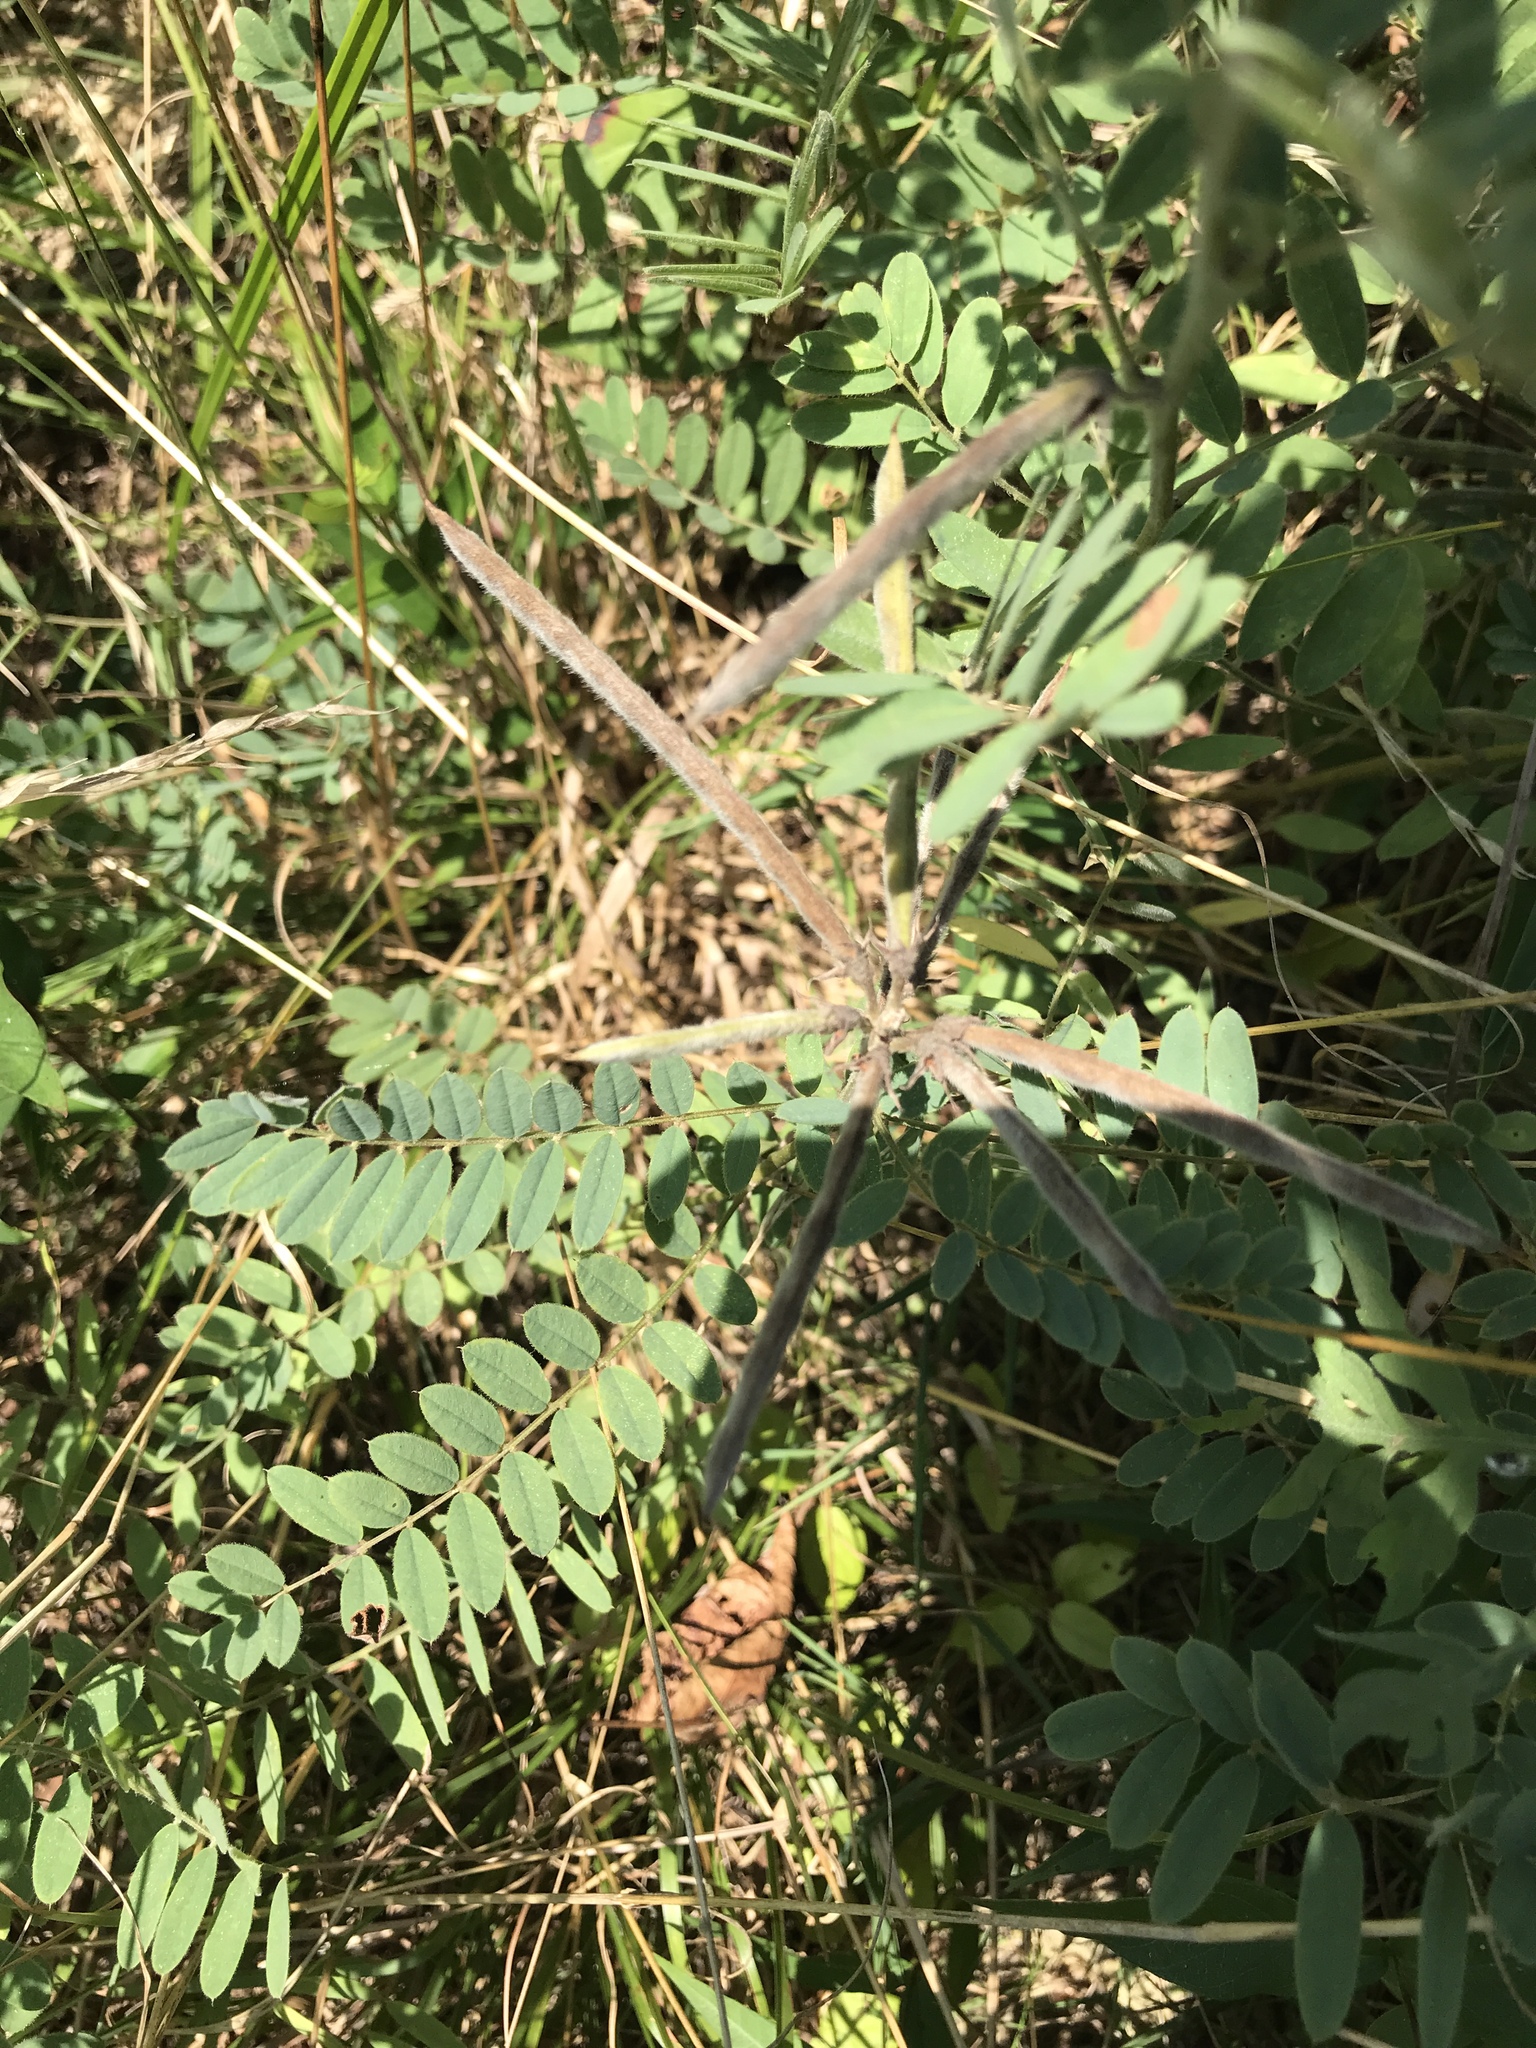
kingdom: Plantae
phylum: Tracheophyta
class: Magnoliopsida
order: Fabales
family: Fabaceae
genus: Tephrosia
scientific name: Tephrosia virginiana
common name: Rabbit-pea
